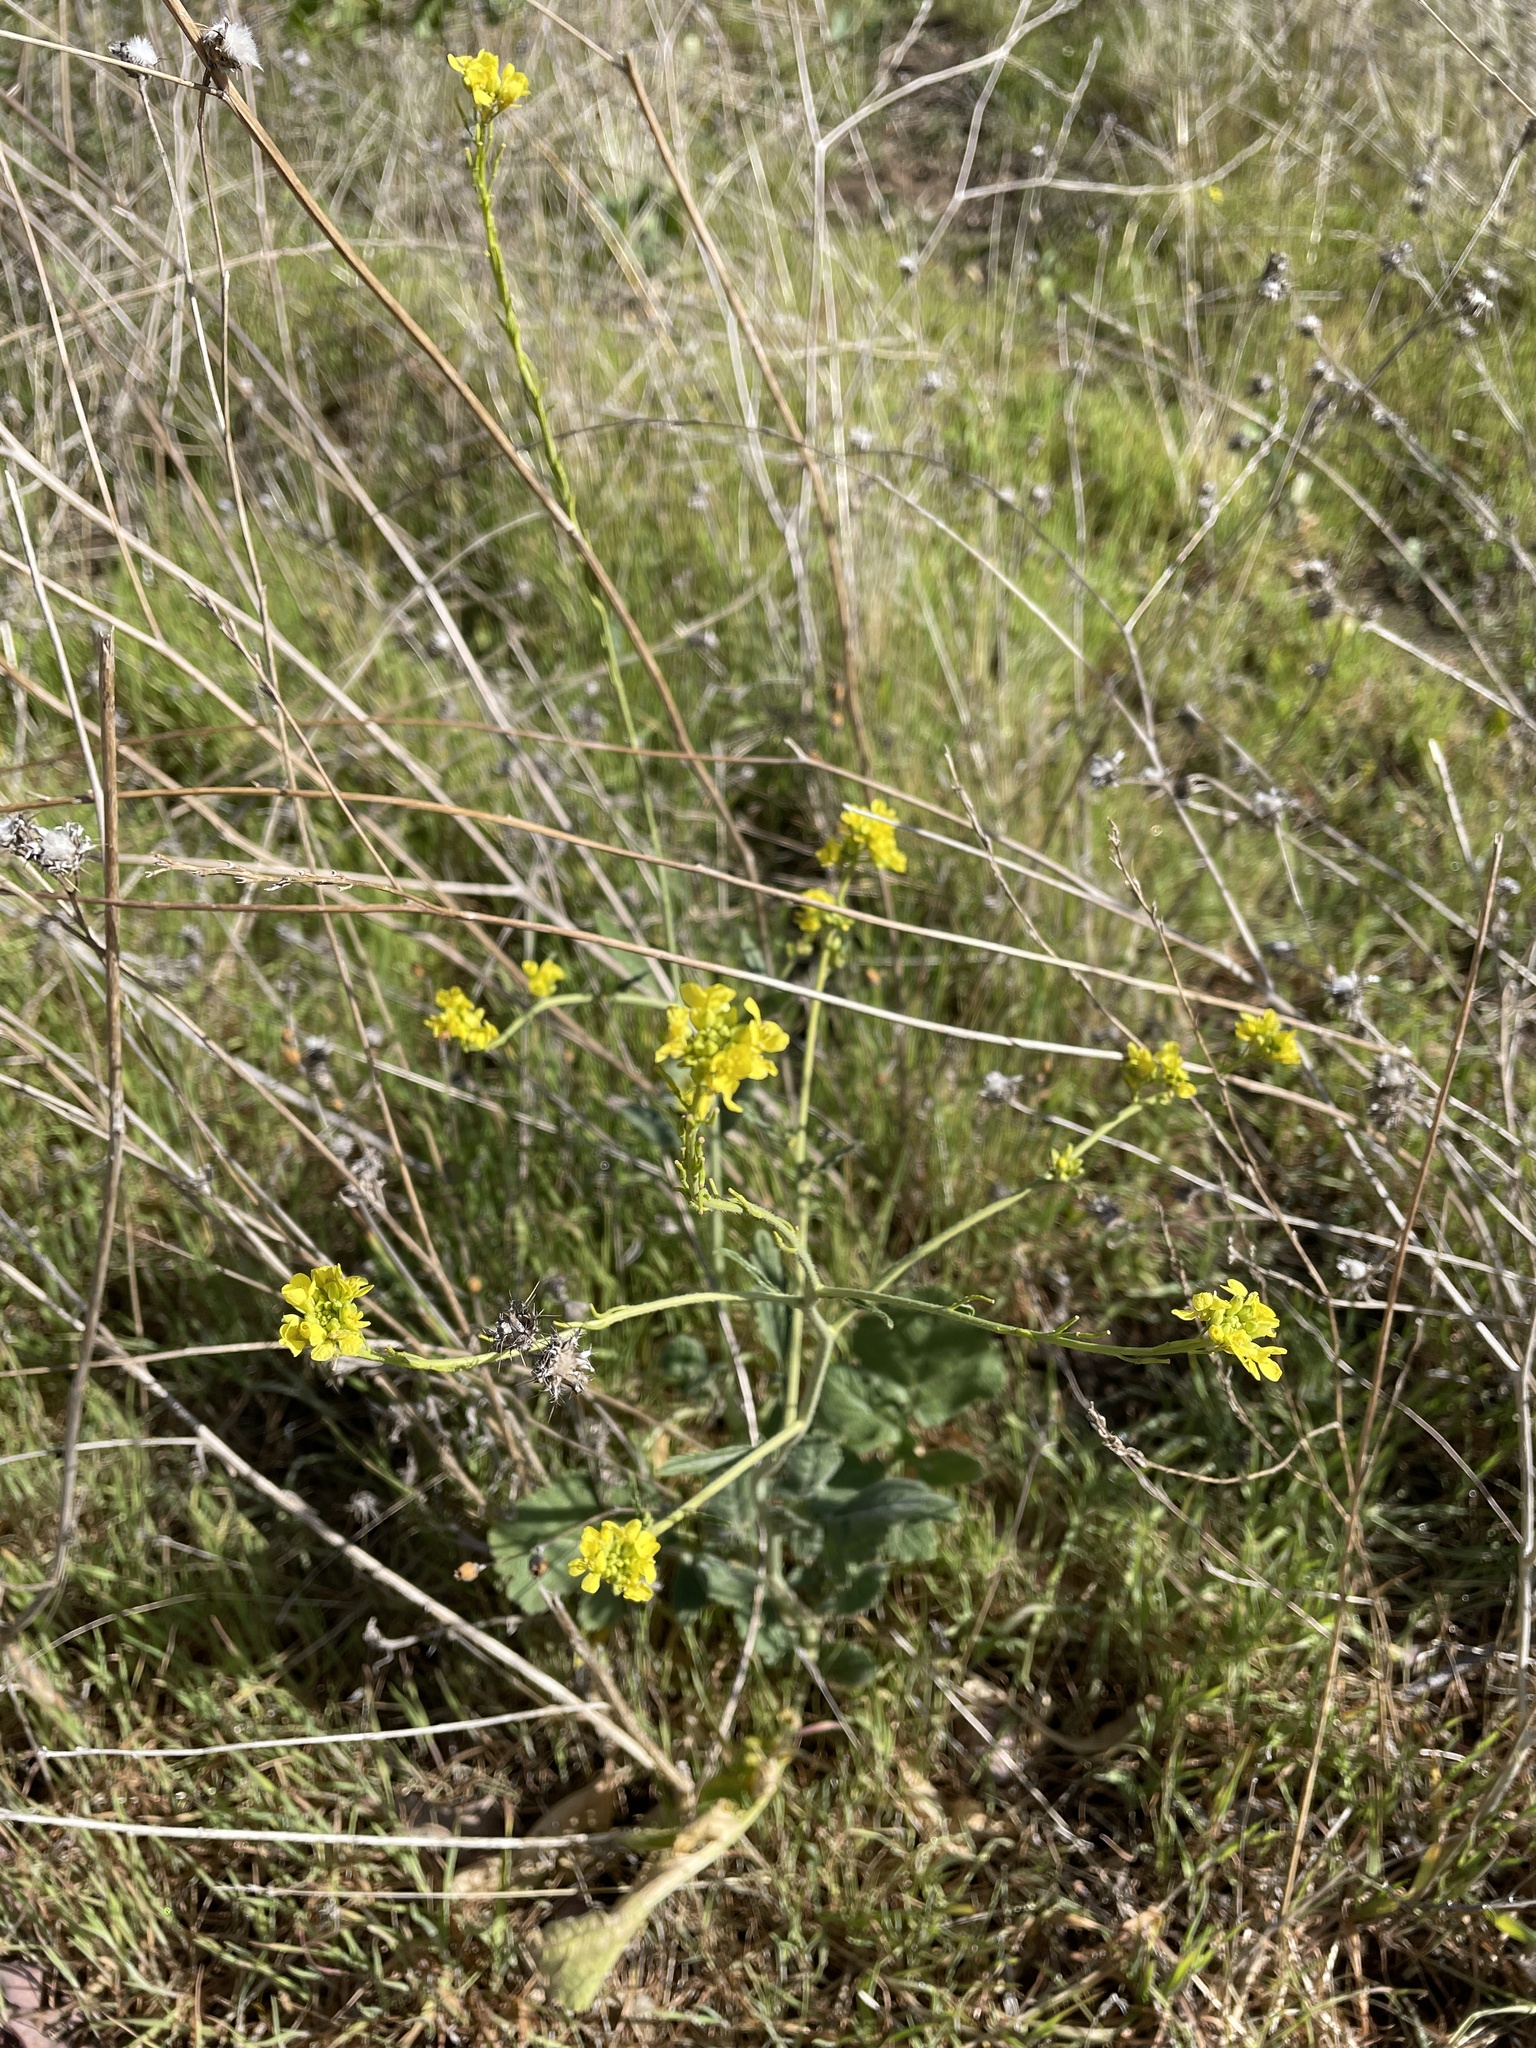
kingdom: Plantae
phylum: Tracheophyta
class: Magnoliopsida
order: Brassicales
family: Brassicaceae
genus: Hirschfeldia
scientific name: Hirschfeldia incana
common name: Hoary mustard
